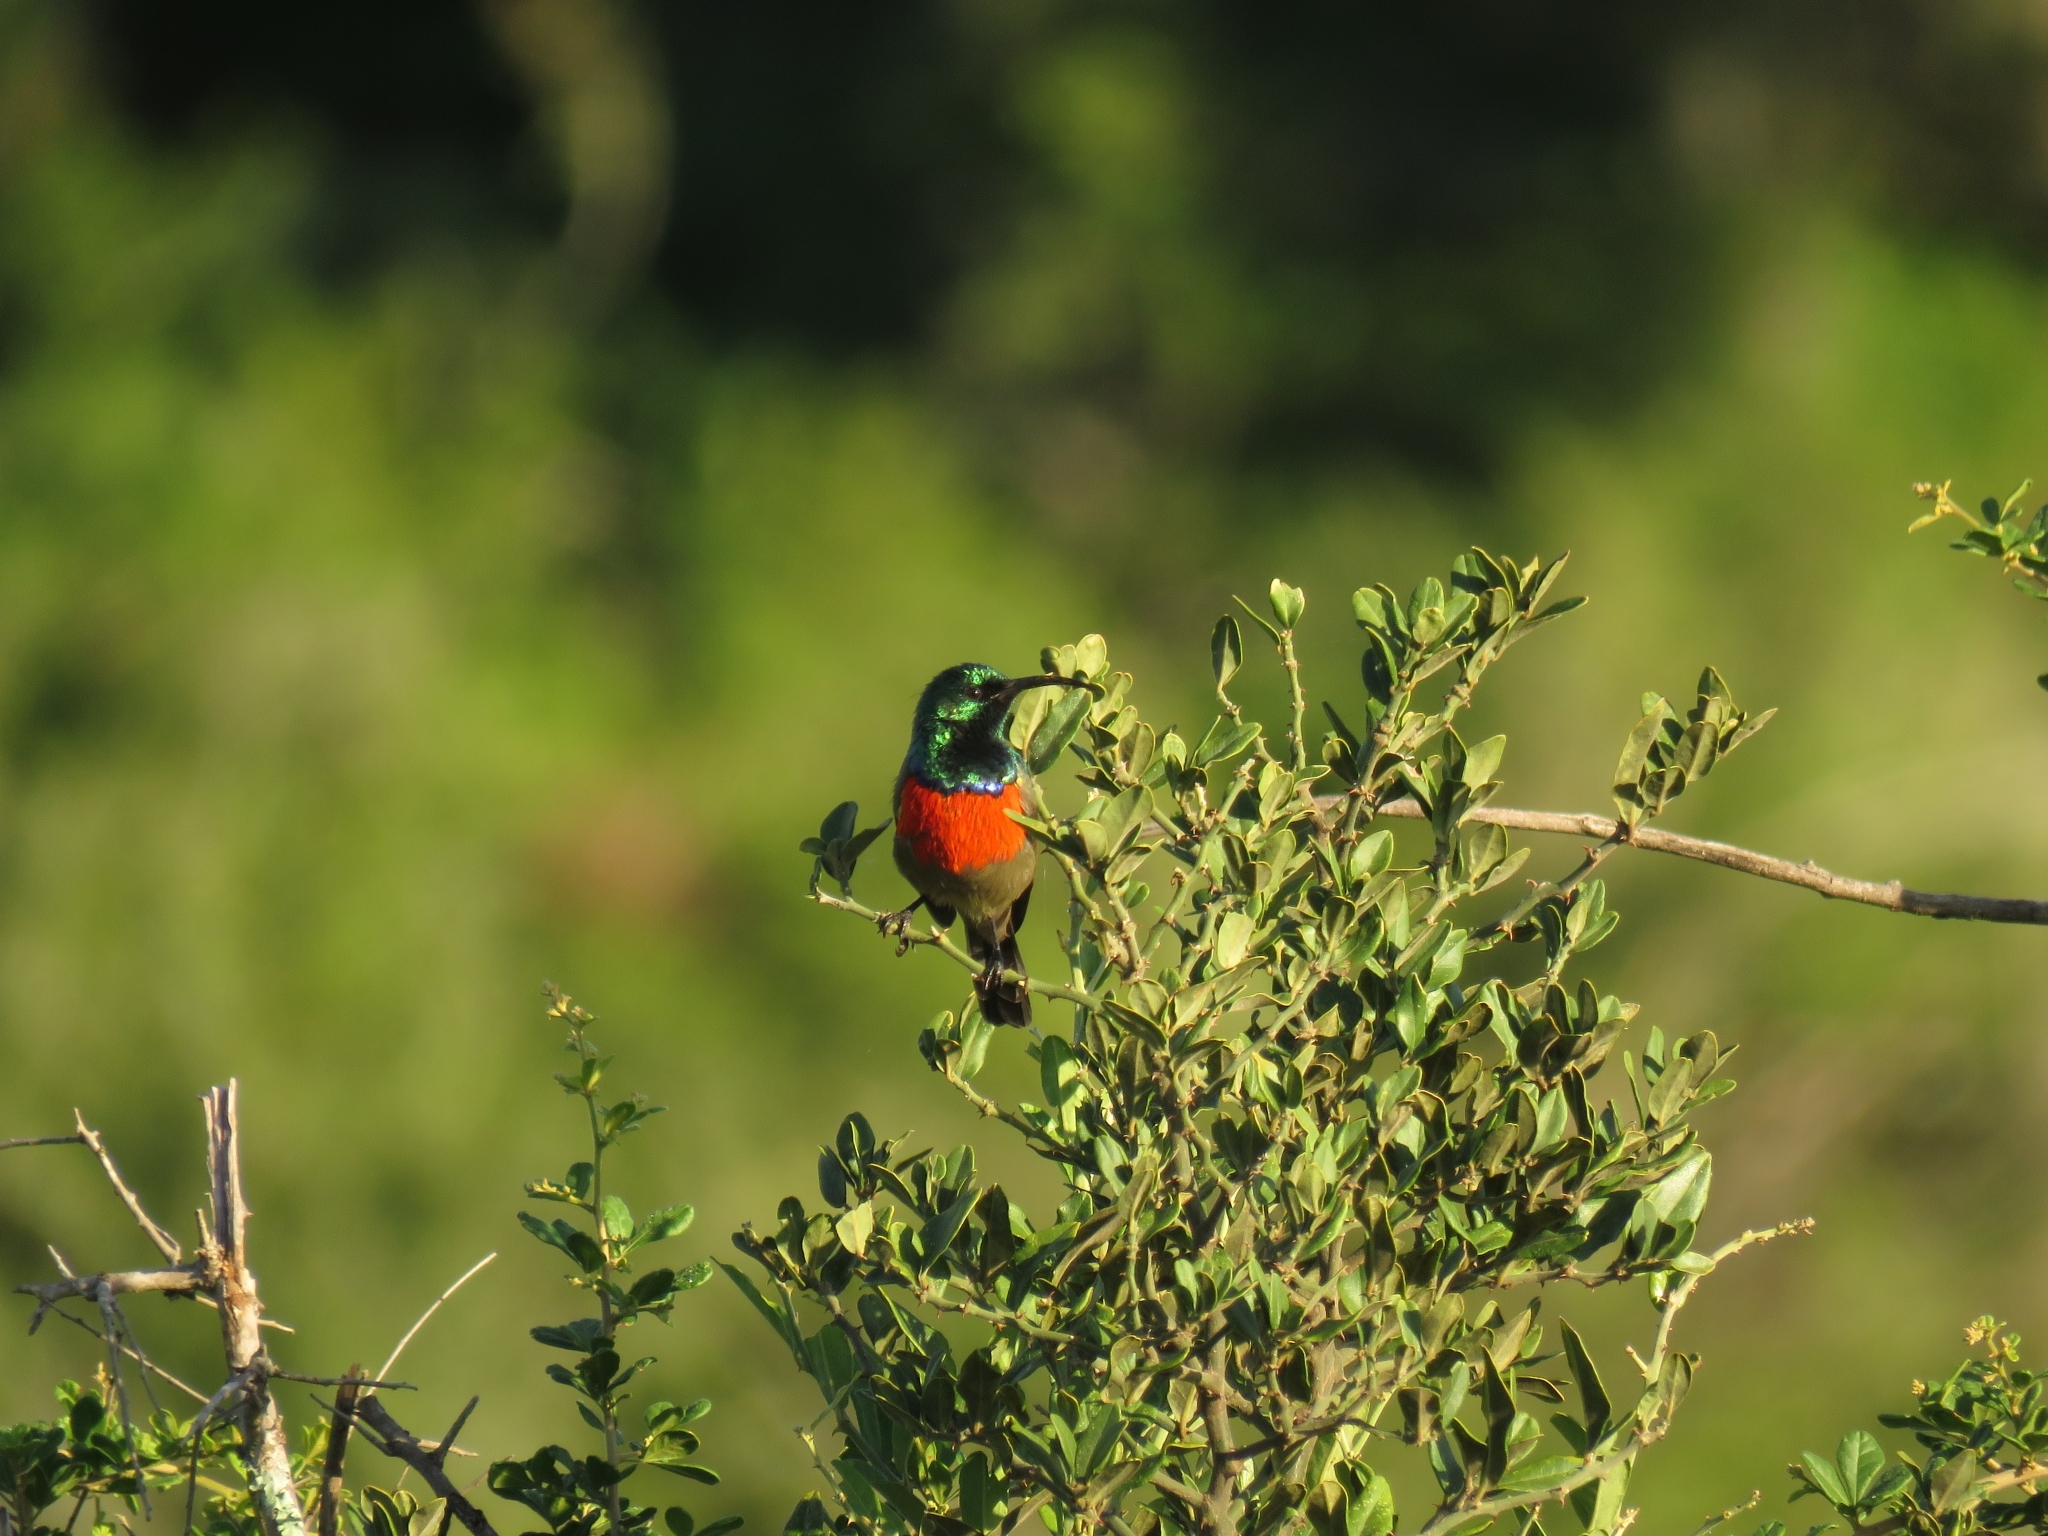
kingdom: Animalia
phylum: Chordata
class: Aves
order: Passeriformes
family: Nectariniidae
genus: Cinnyris
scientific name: Cinnyris afer
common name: Greater double-collared sunbird
